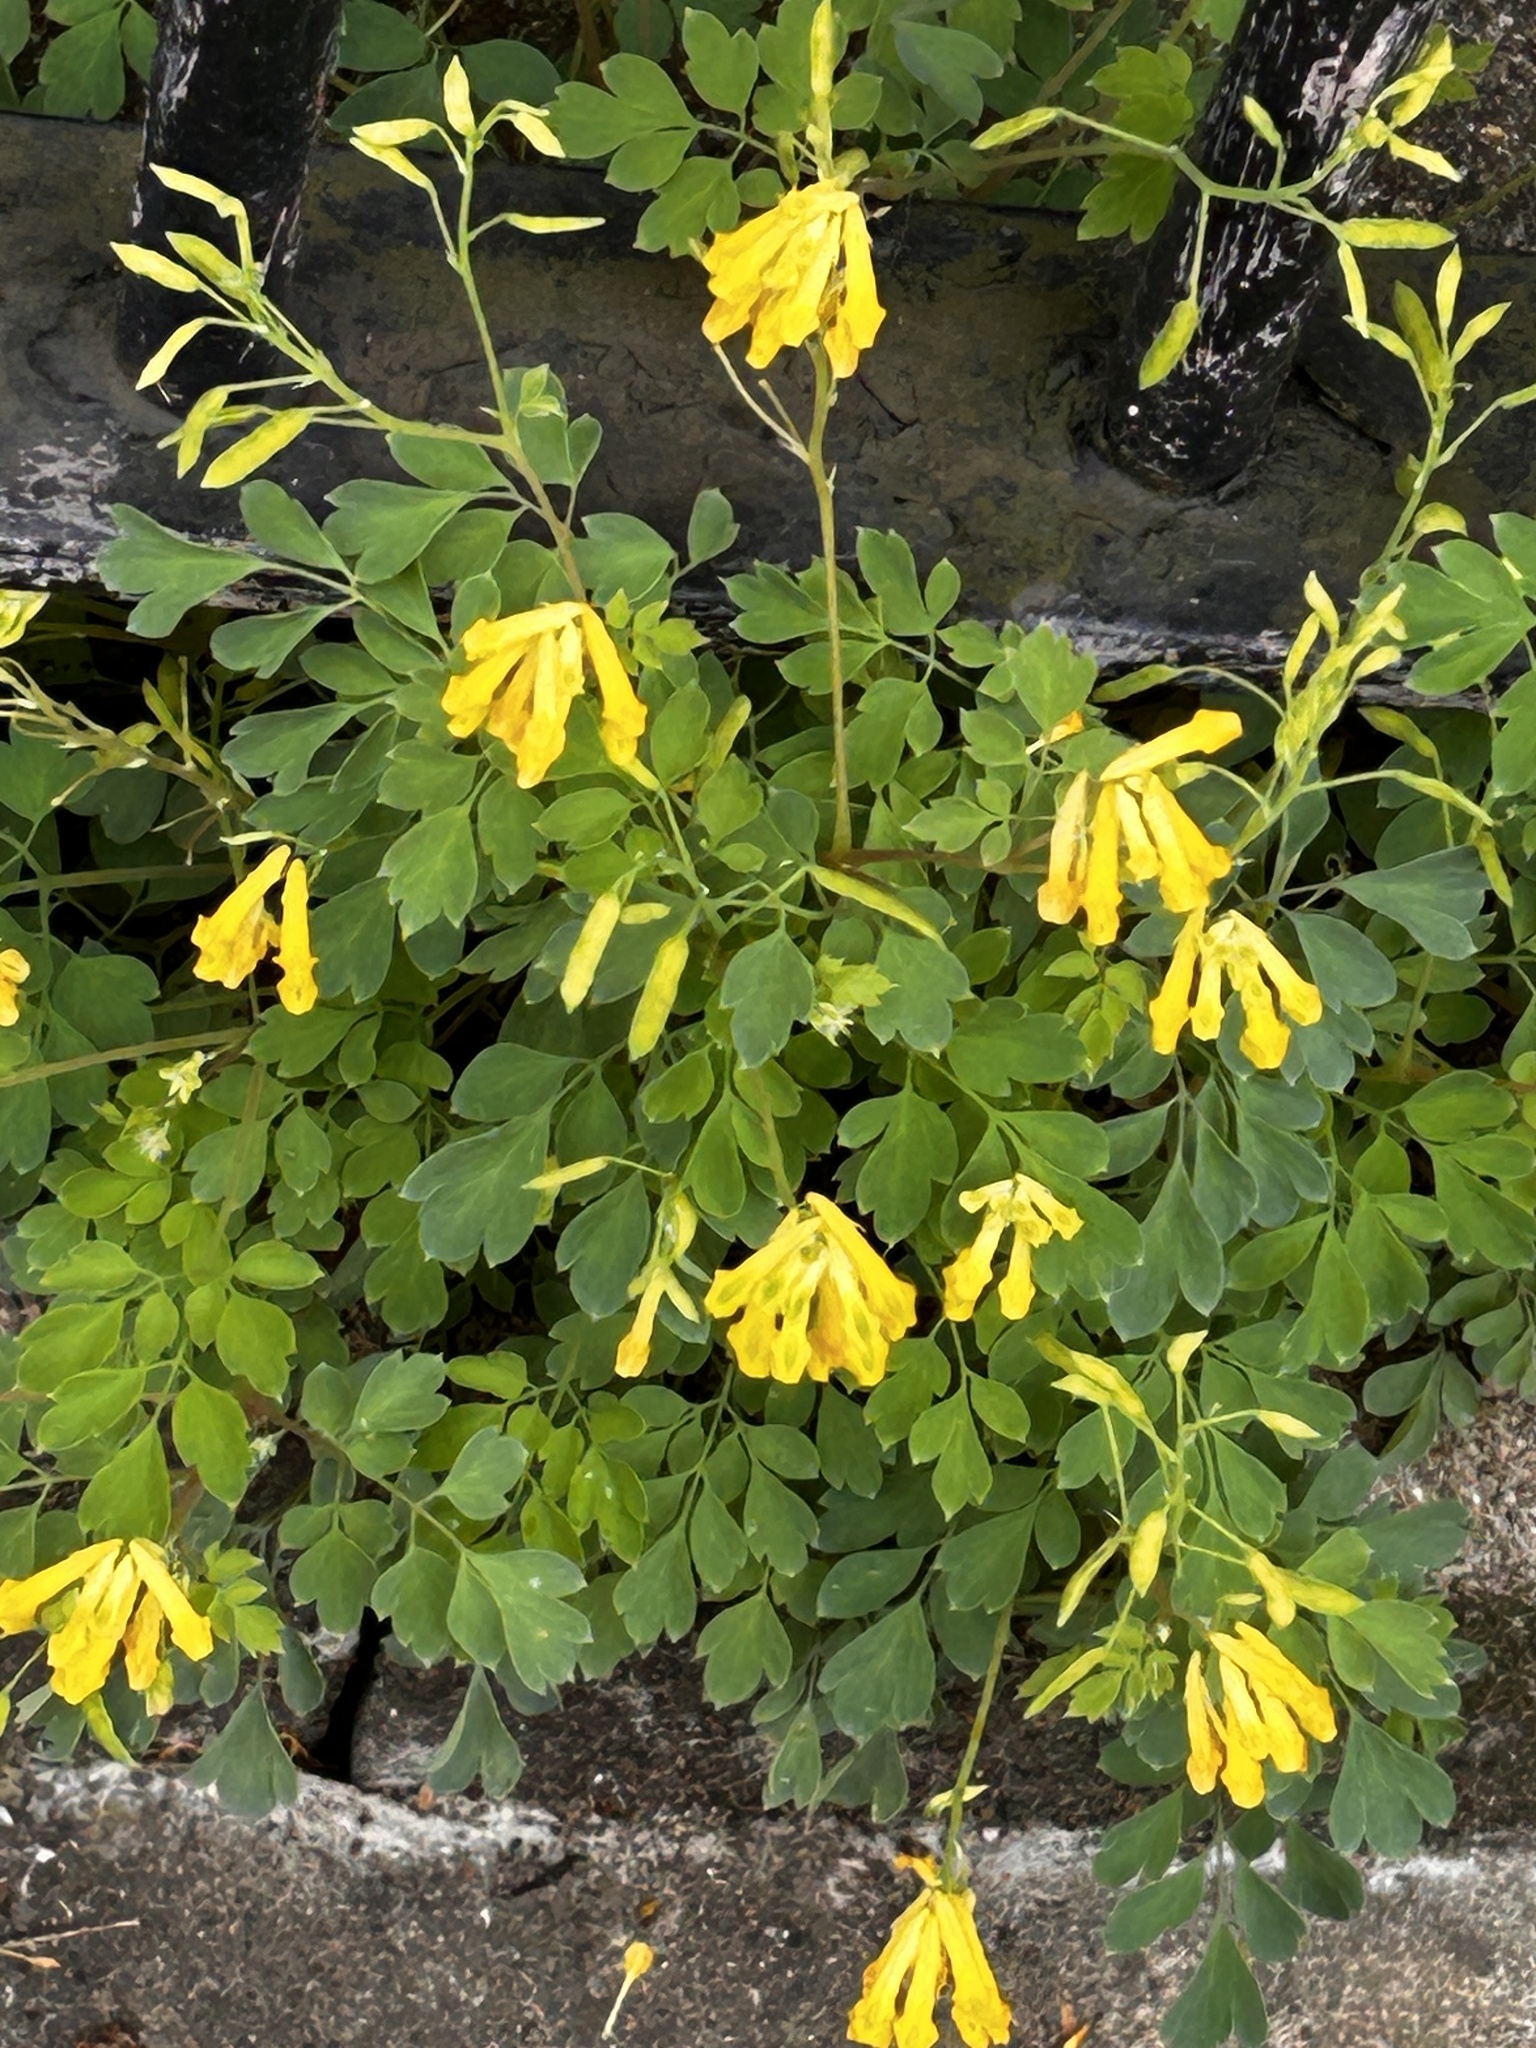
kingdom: Plantae
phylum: Tracheophyta
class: Magnoliopsida
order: Ranunculales
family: Papaveraceae
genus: Pseudofumaria
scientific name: Pseudofumaria lutea
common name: Yellow corydalis
